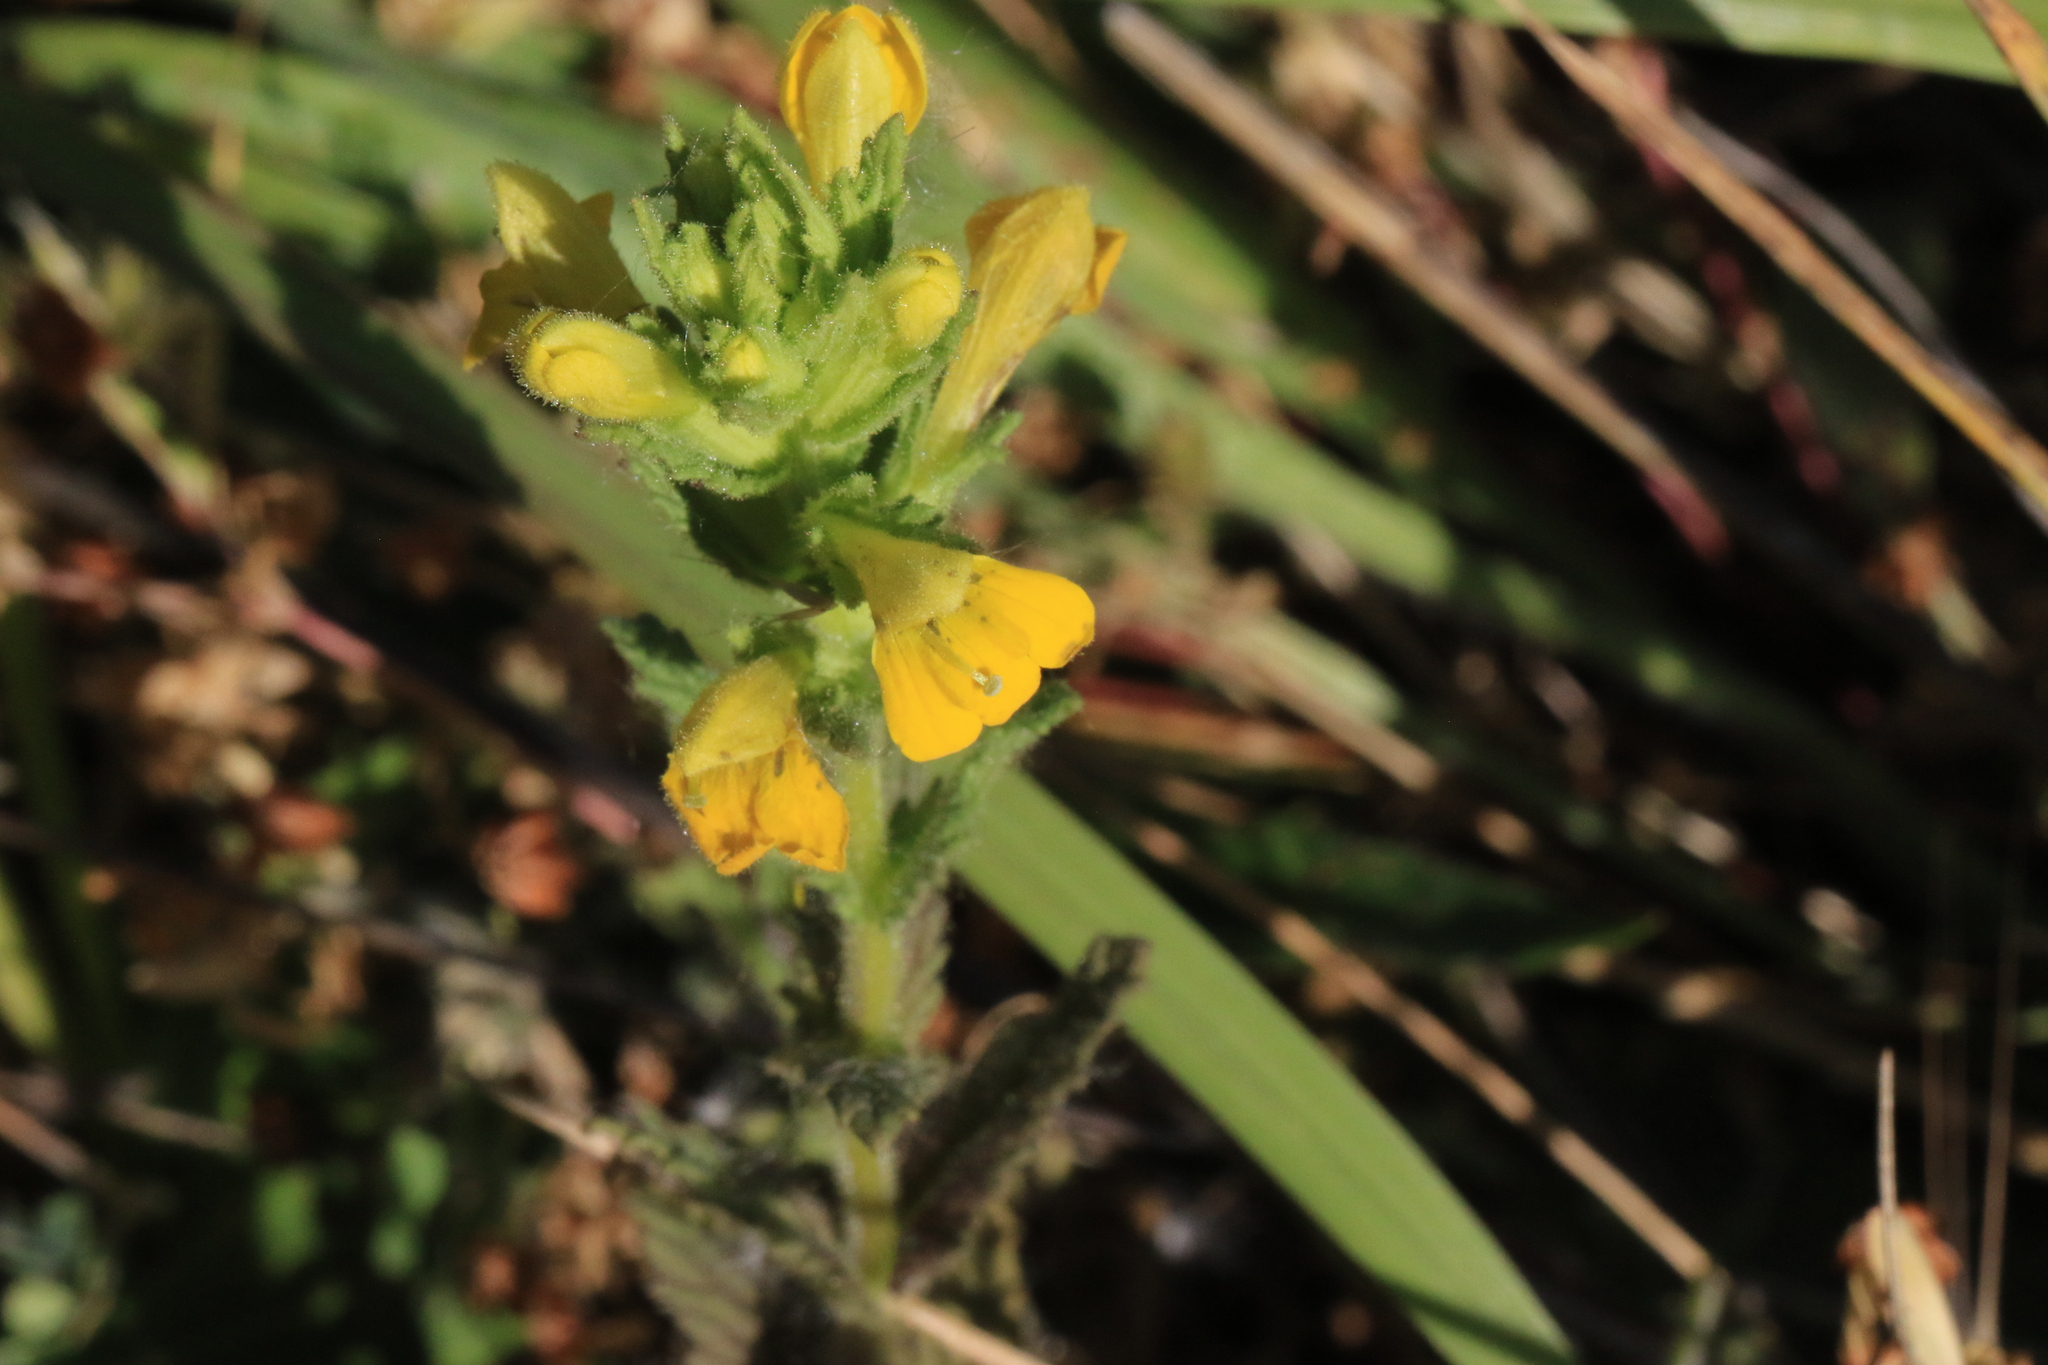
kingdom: Plantae
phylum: Tracheophyta
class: Magnoliopsida
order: Lamiales
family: Orobanchaceae
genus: Bellardia
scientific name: Bellardia viscosa
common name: Sticky parentucellia
